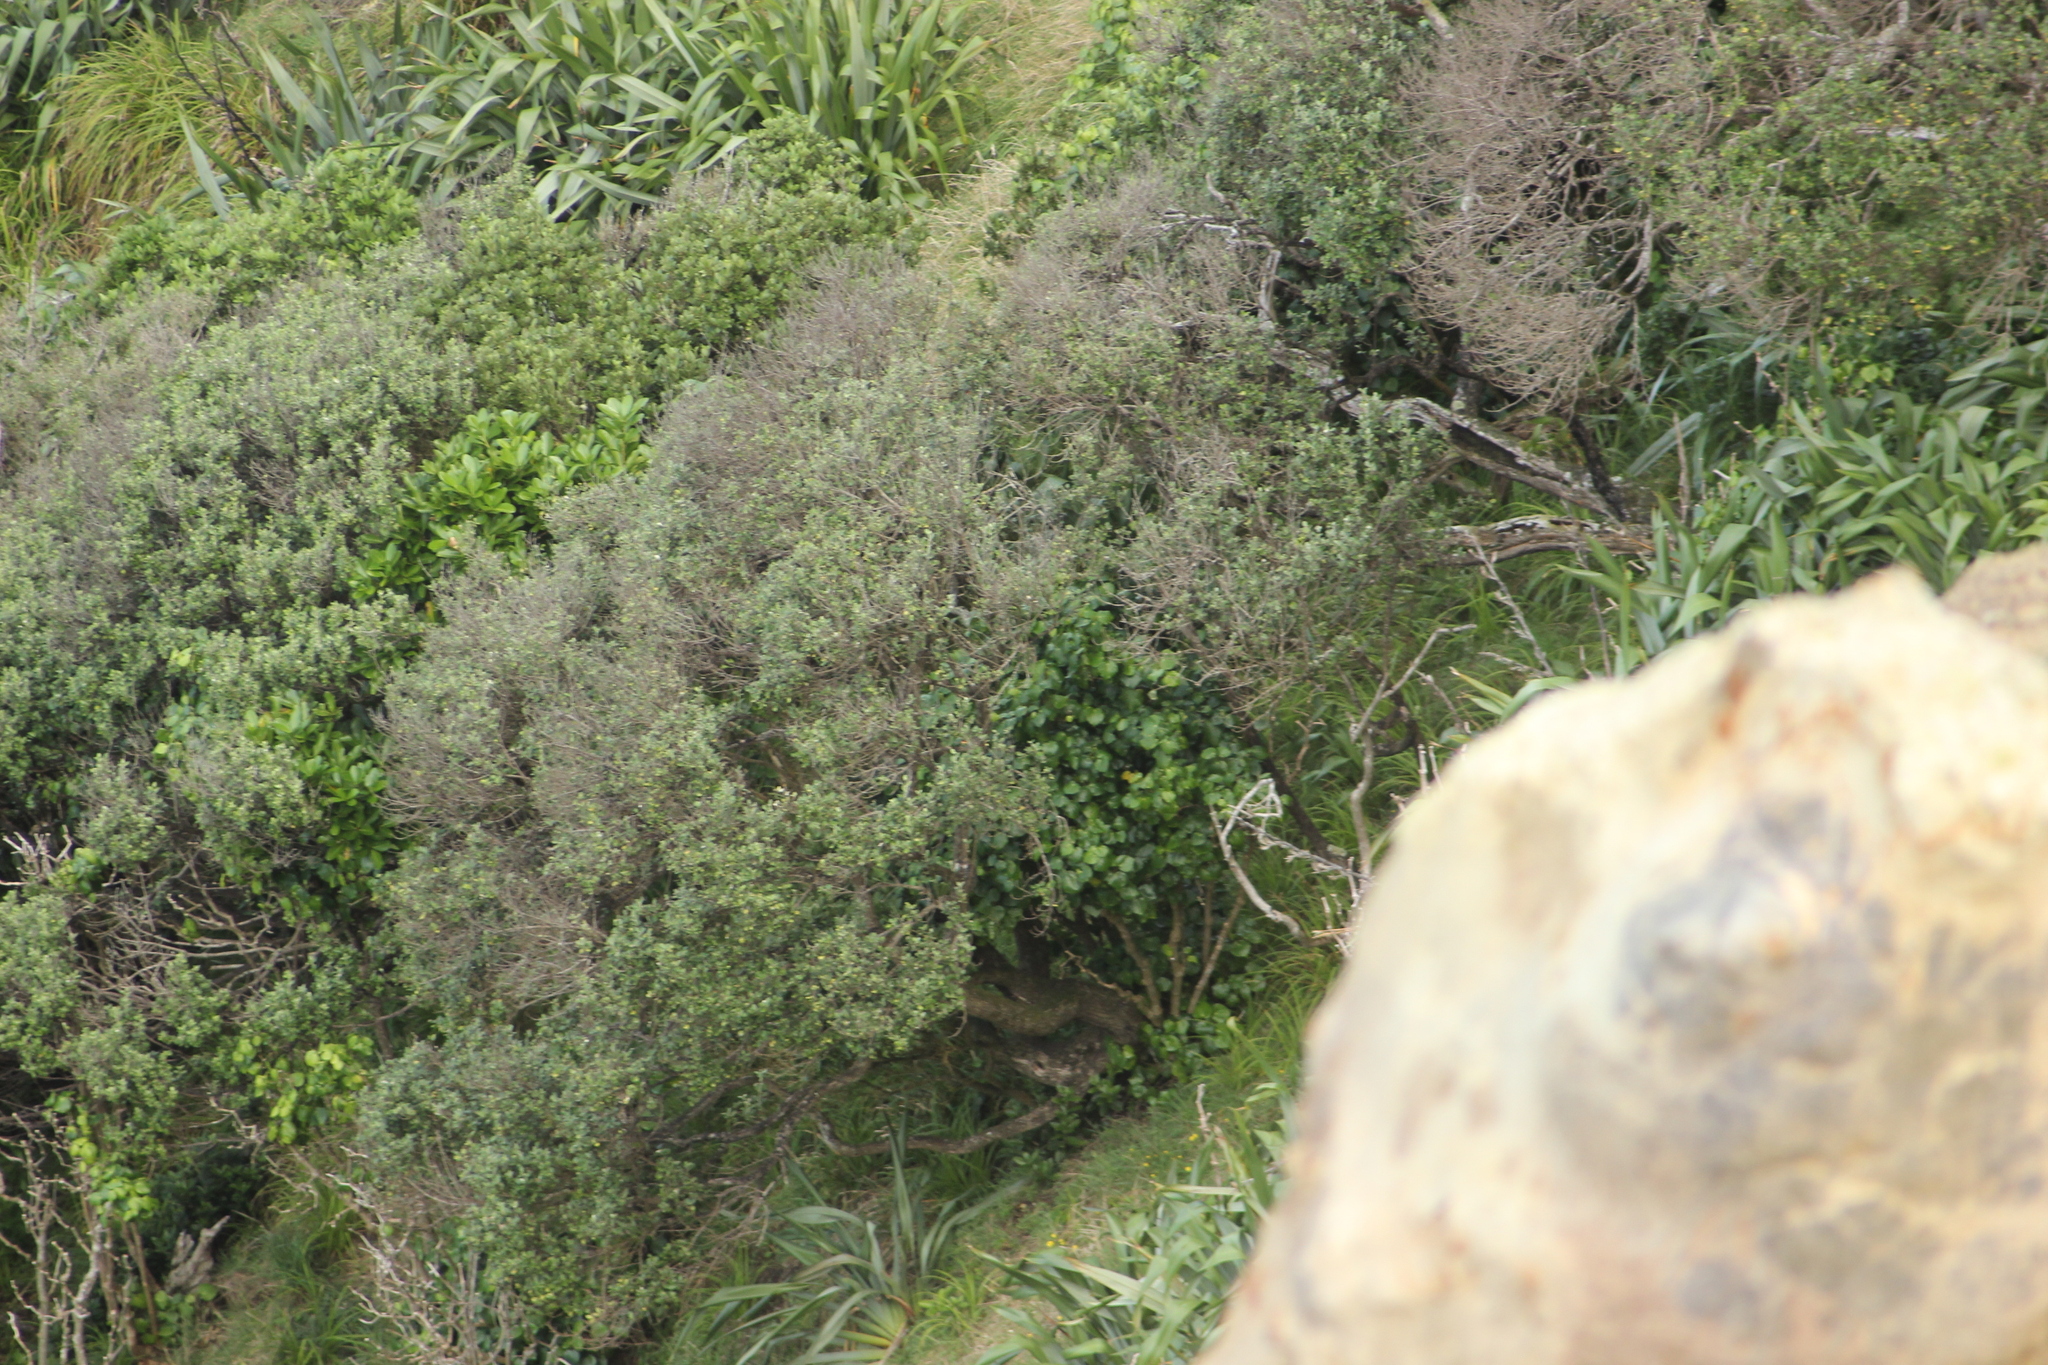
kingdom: Plantae
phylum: Tracheophyta
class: Magnoliopsida
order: Asterales
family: Asteraceae
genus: Olearia
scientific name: Olearia traversiorum
